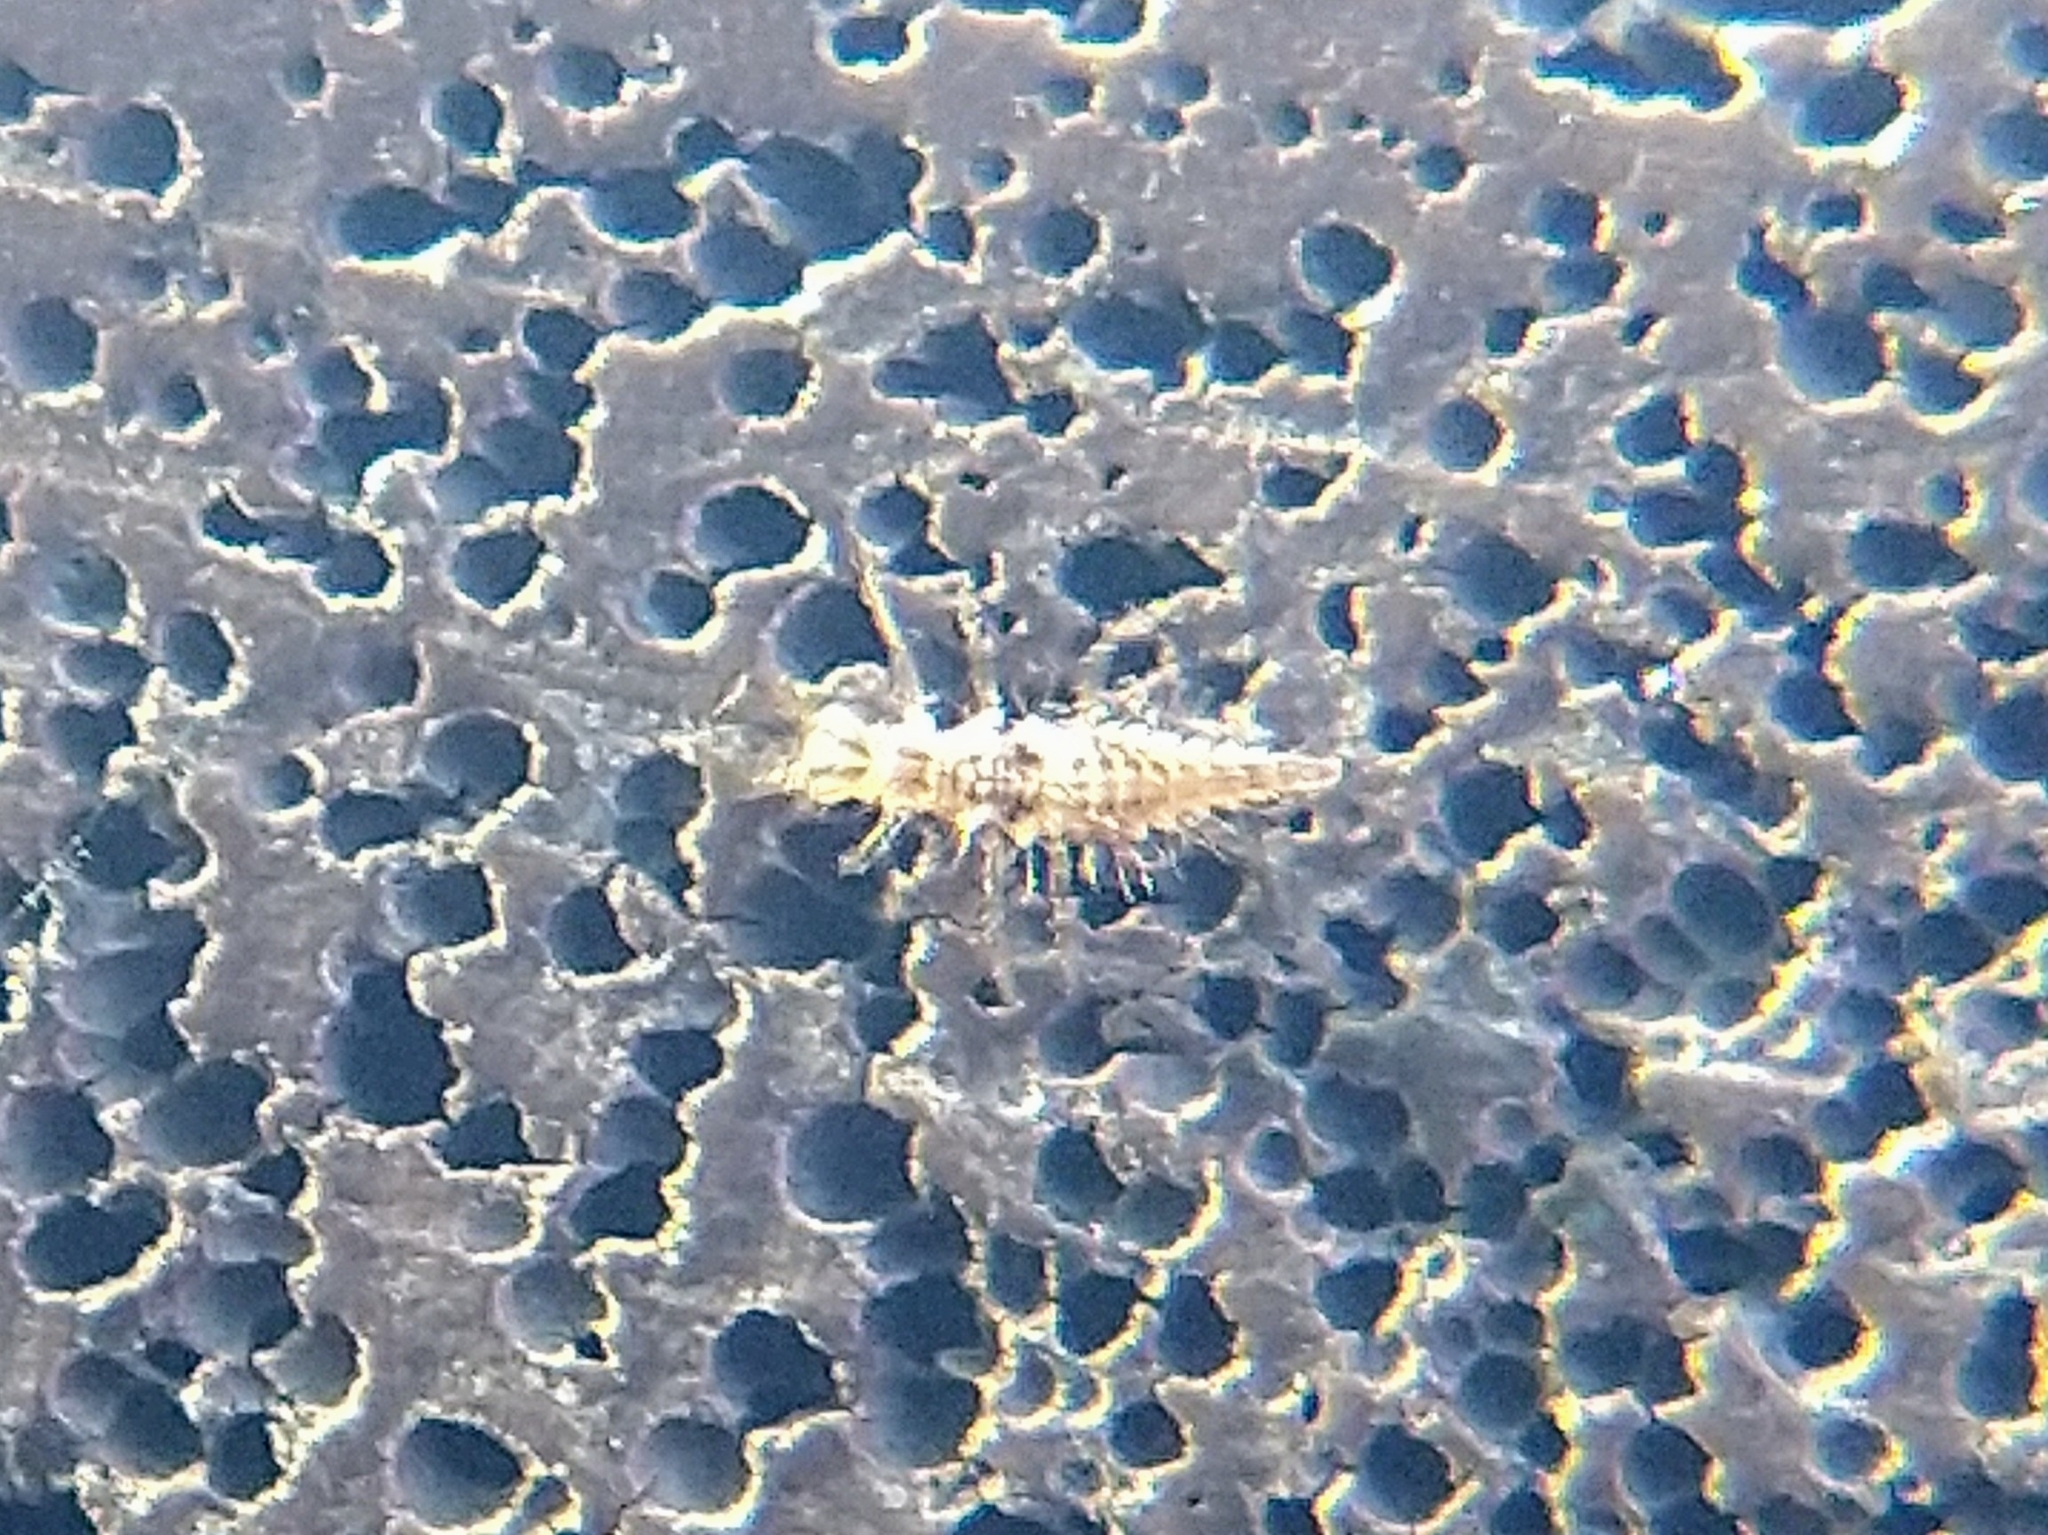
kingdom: Animalia
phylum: Arthropoda
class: Insecta
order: Neuroptera
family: Chrysopidae
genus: Chrysoperla
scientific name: Chrysoperla
